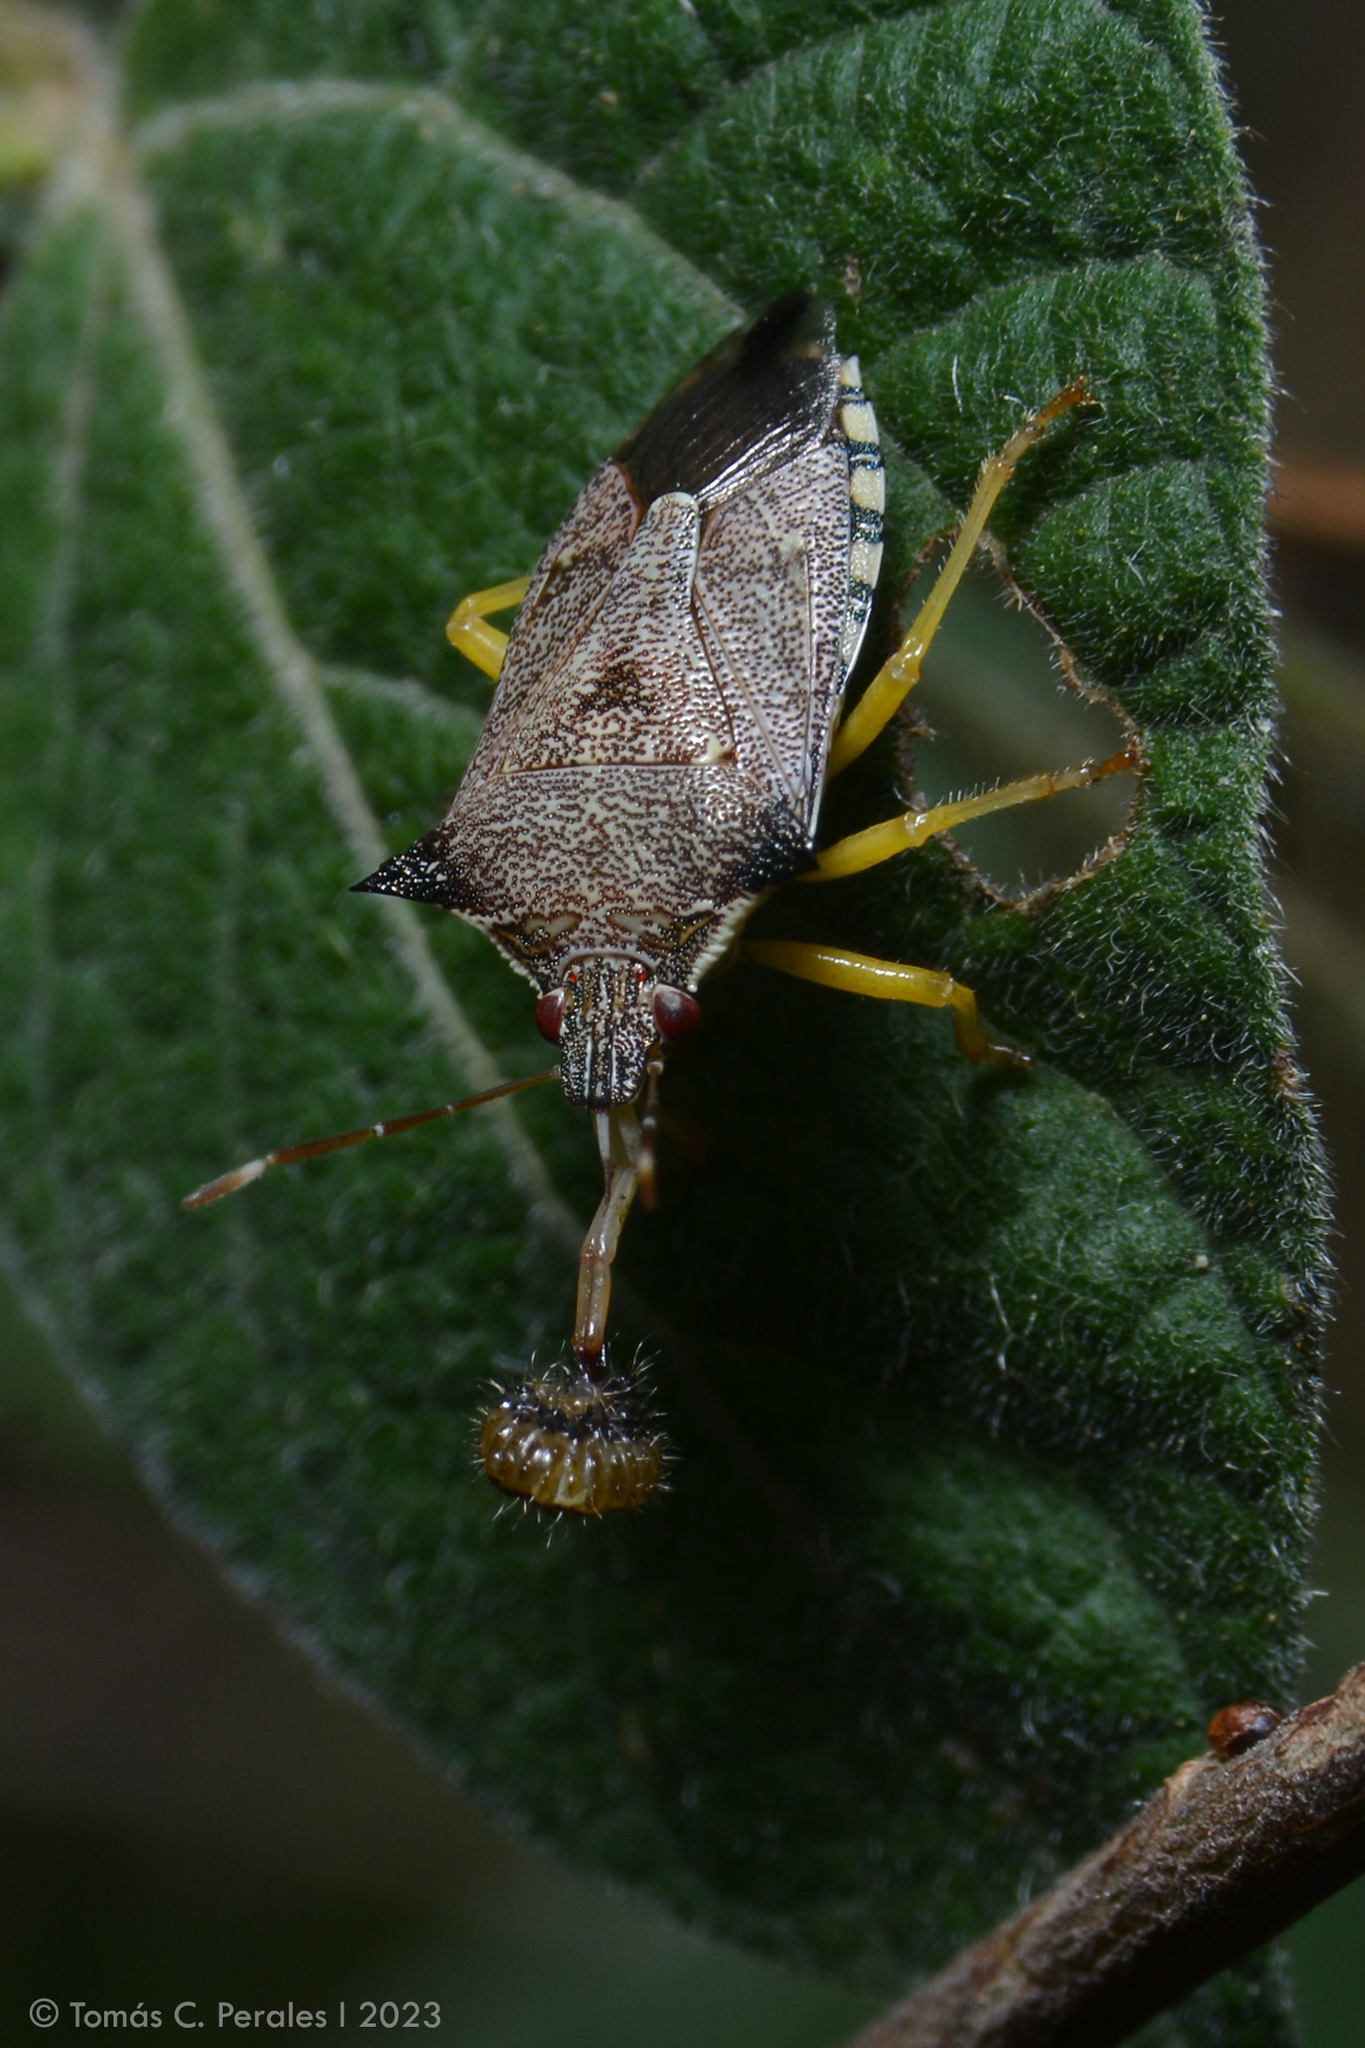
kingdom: Animalia
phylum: Arthropoda
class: Insecta
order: Hemiptera
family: Pentatomidae
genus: Podisus
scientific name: Podisus nigrispinus
